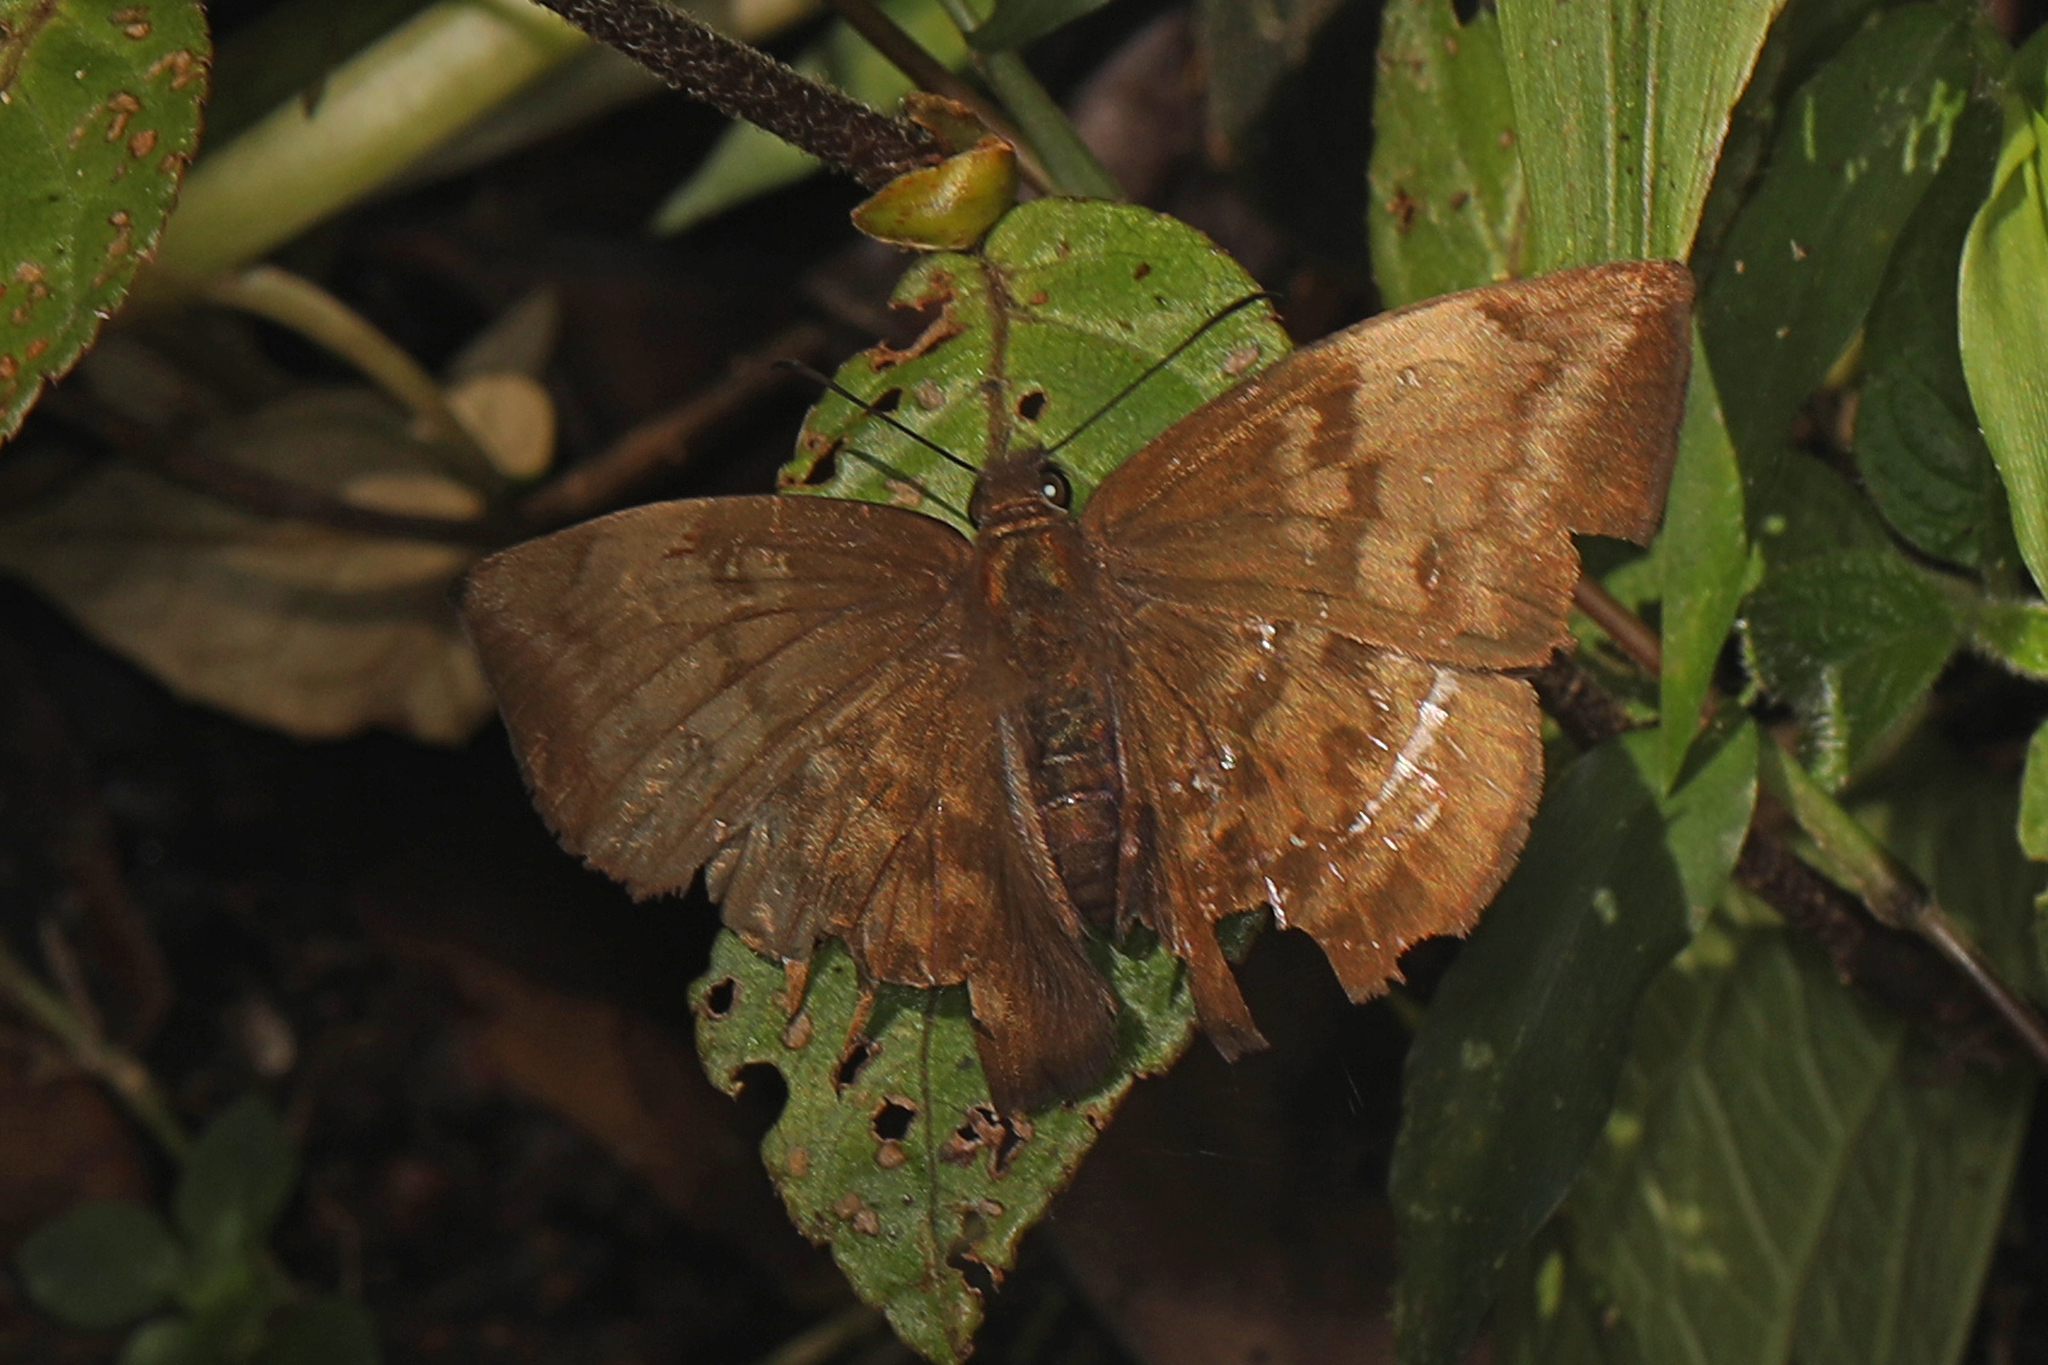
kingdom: Animalia
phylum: Arthropoda
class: Insecta
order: Lepidoptera
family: Hesperiidae
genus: Achlyodes
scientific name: Achlyodes pallida
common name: Pale sicklewing
